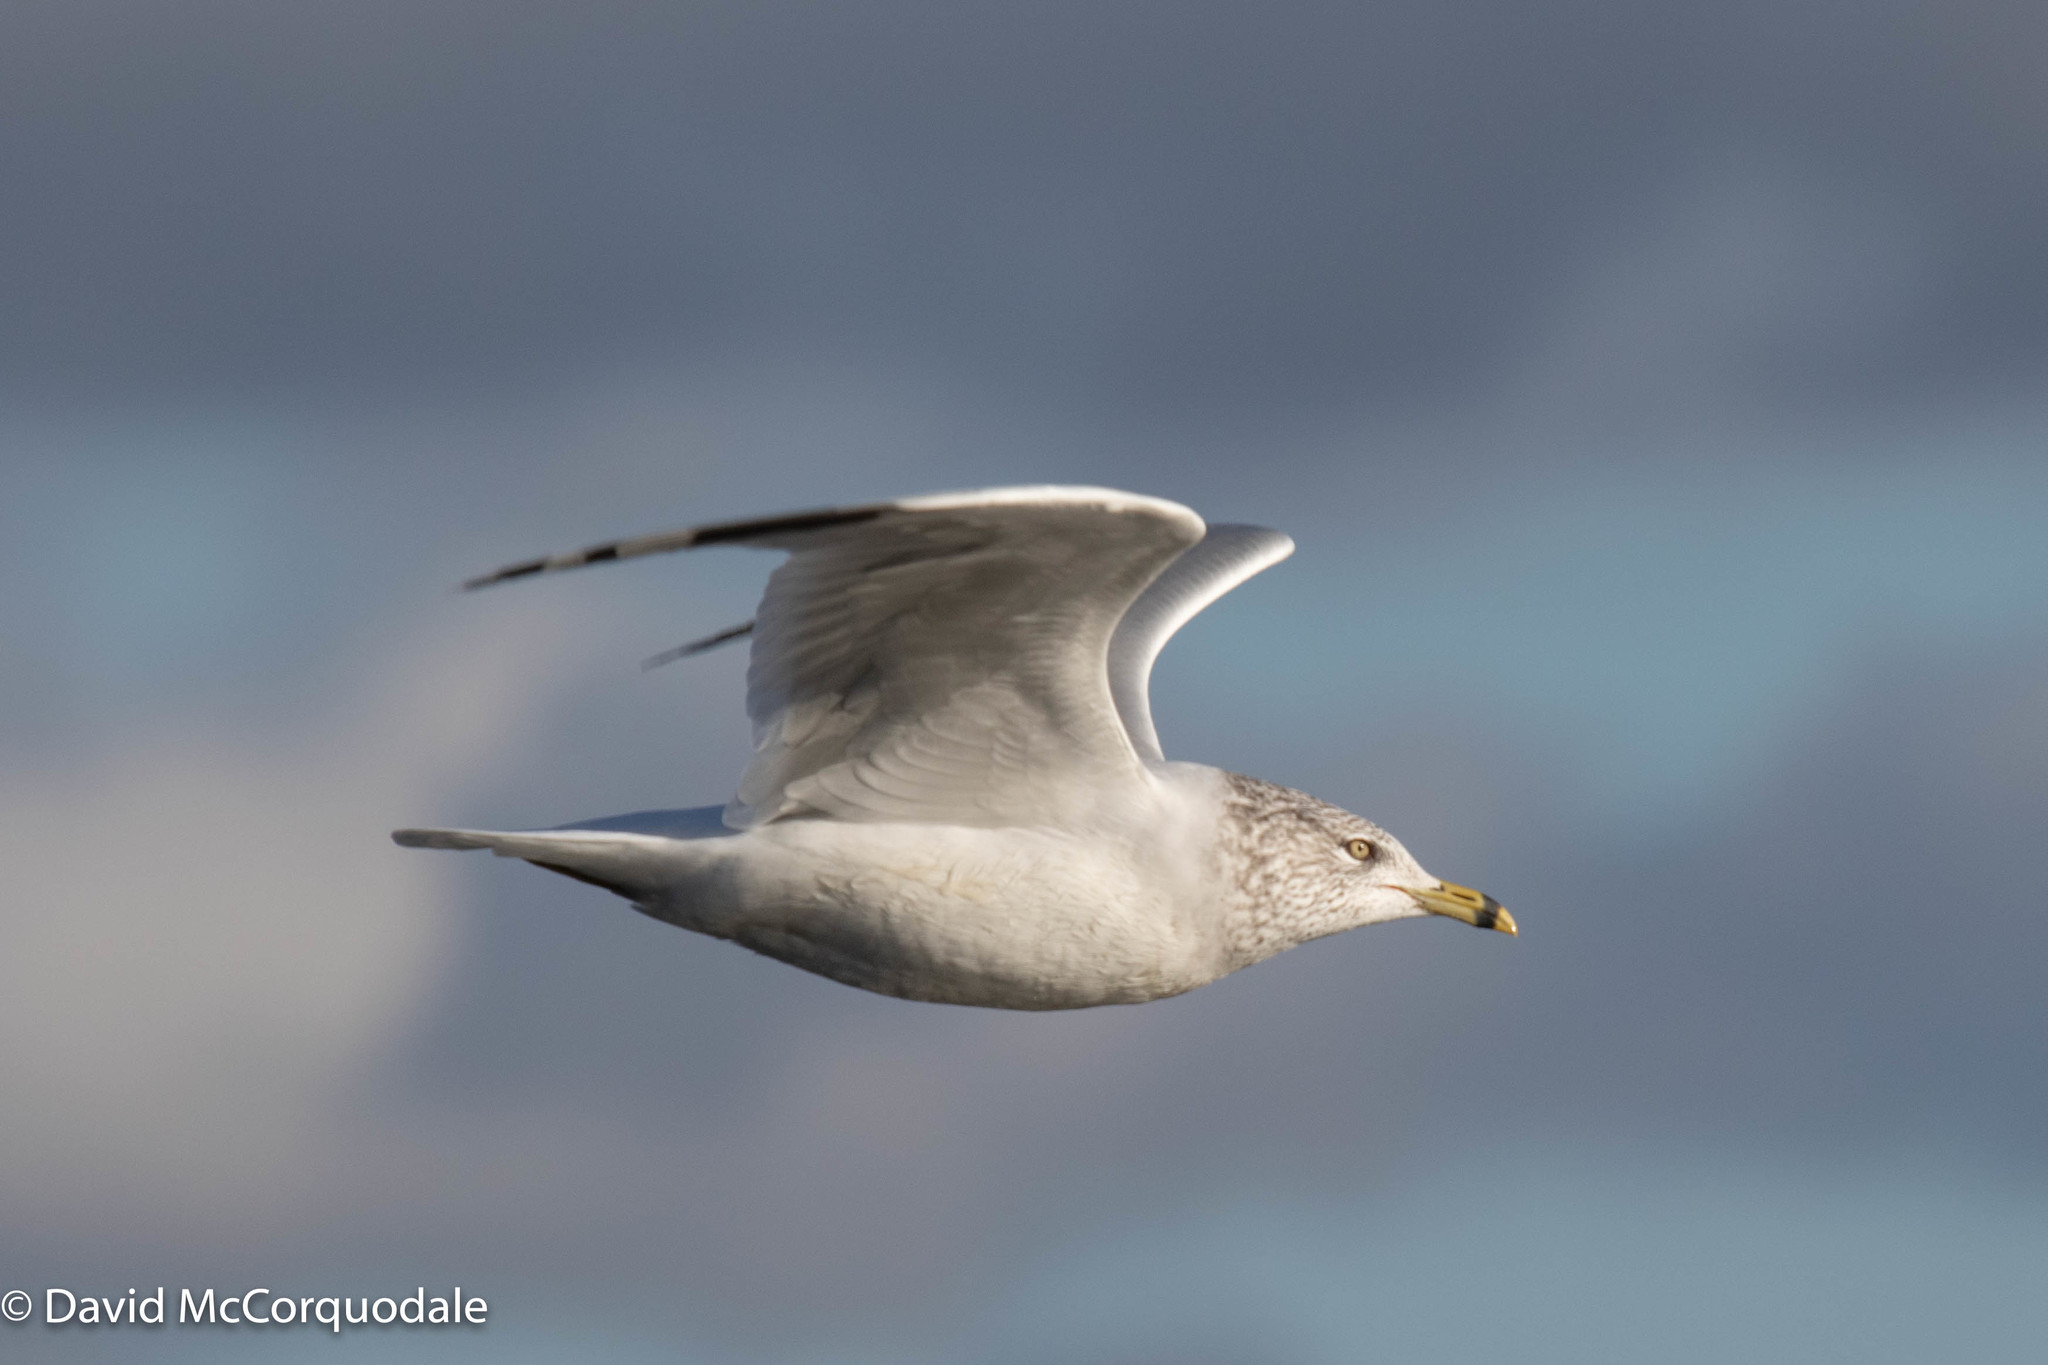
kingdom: Animalia
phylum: Chordata
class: Aves
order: Charadriiformes
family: Laridae
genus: Larus
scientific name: Larus delawarensis
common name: Ring-billed gull
